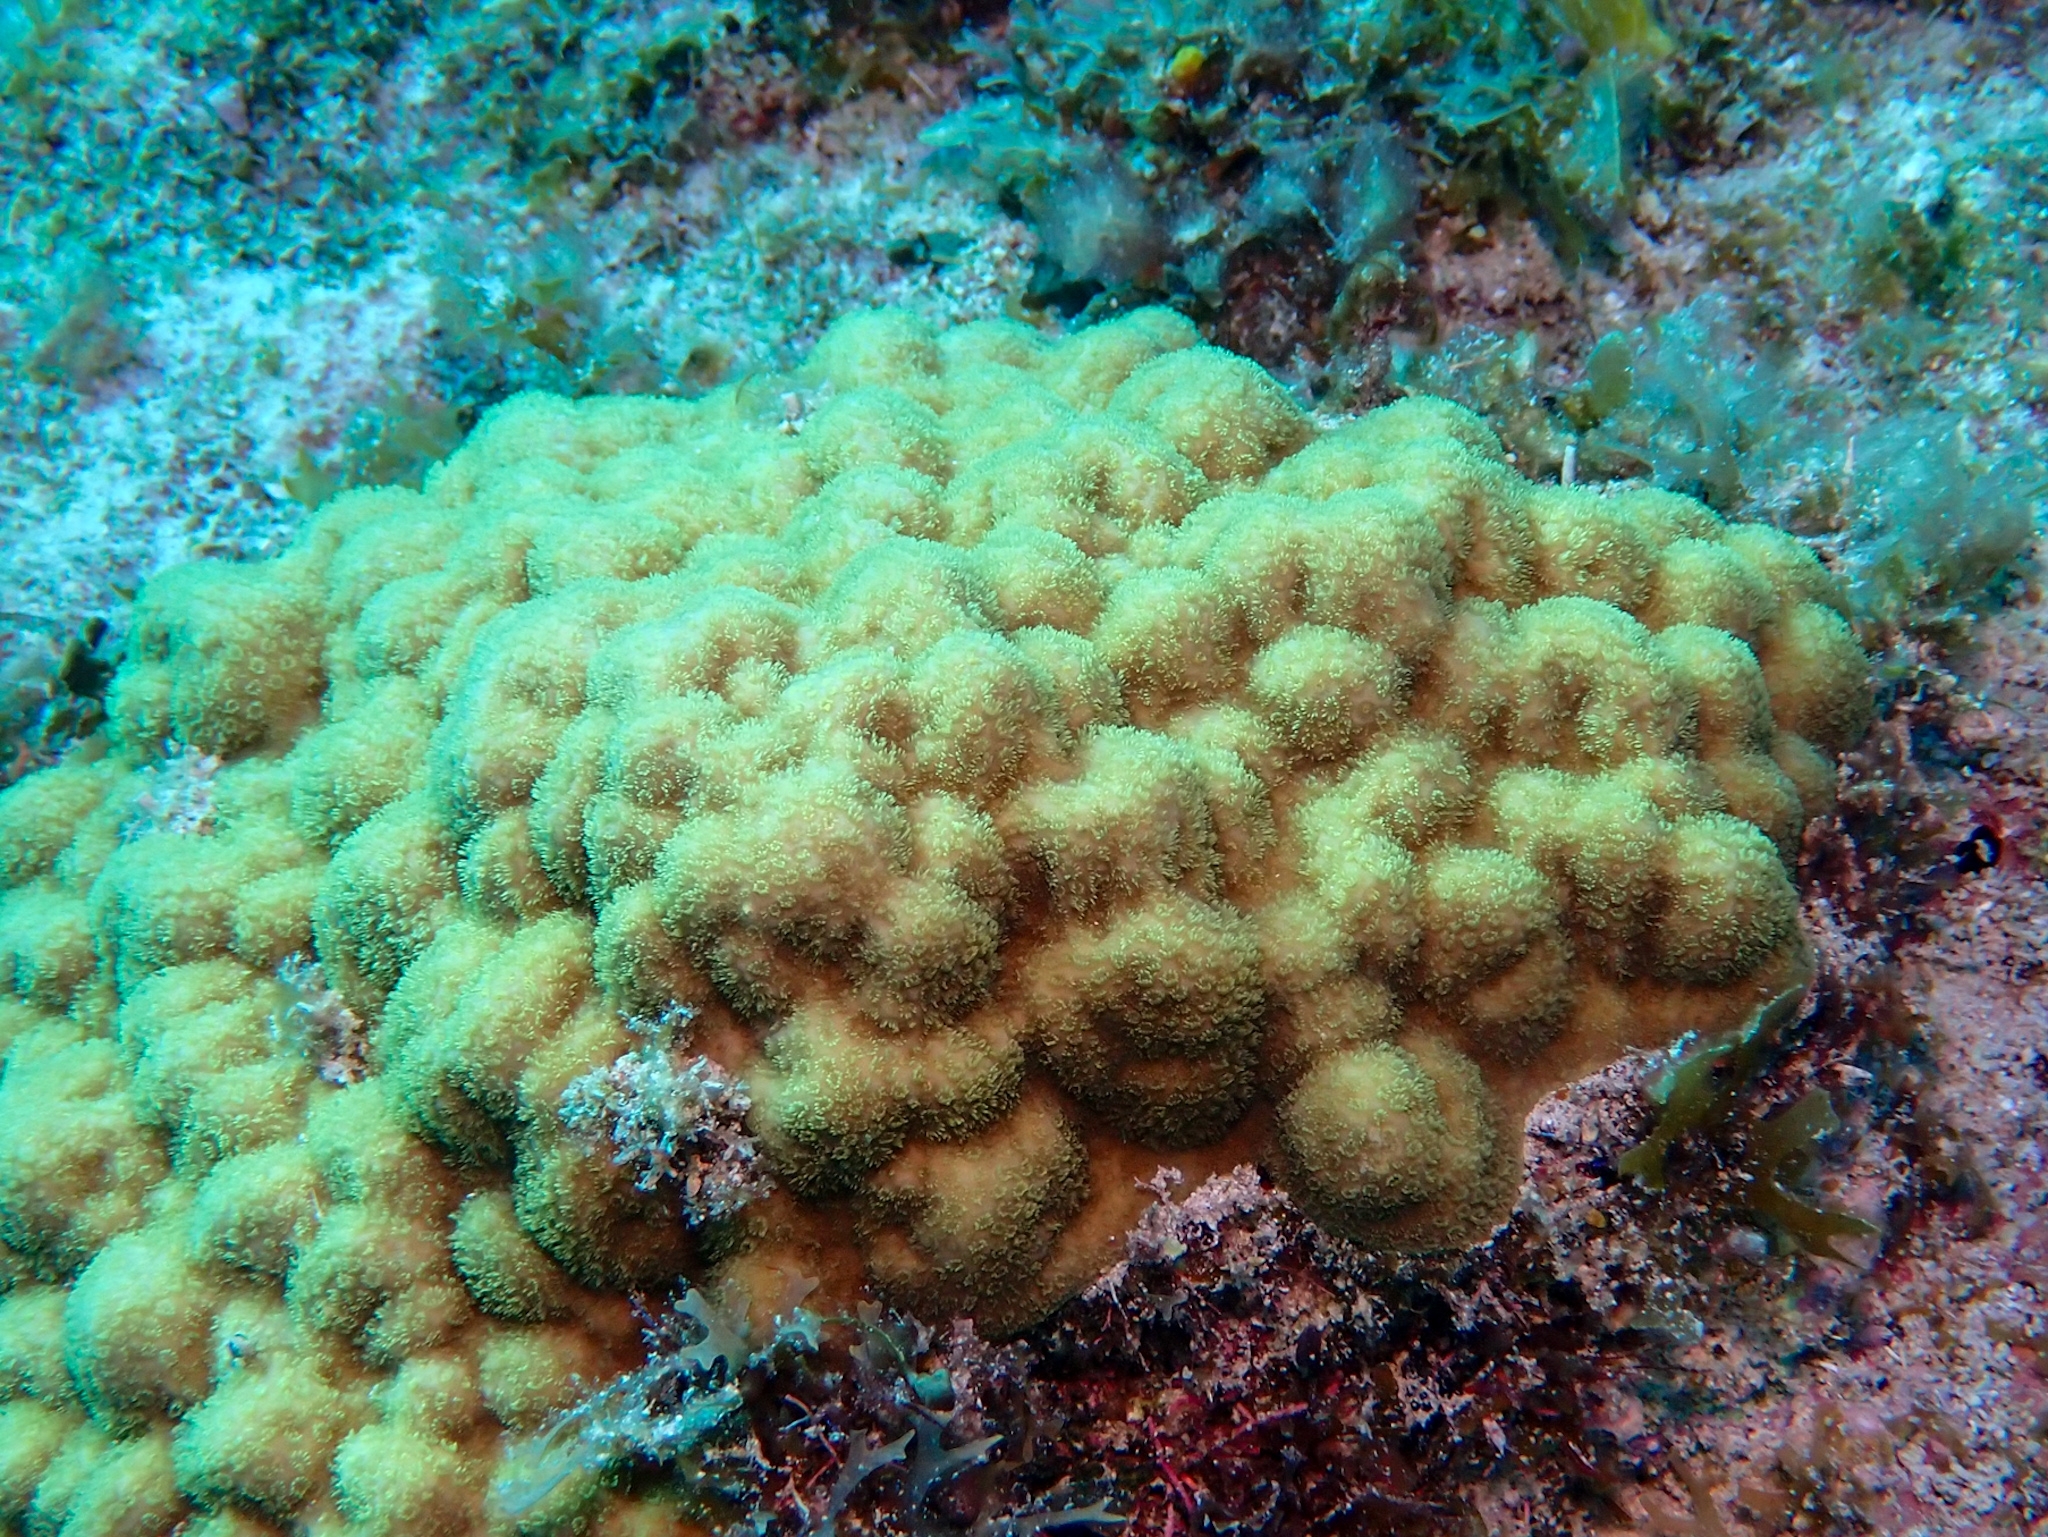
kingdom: Animalia
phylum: Cnidaria
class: Anthozoa
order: Scleractinia
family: Poritidae
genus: Porites
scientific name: Porites astreoides
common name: Mustard hill coral
